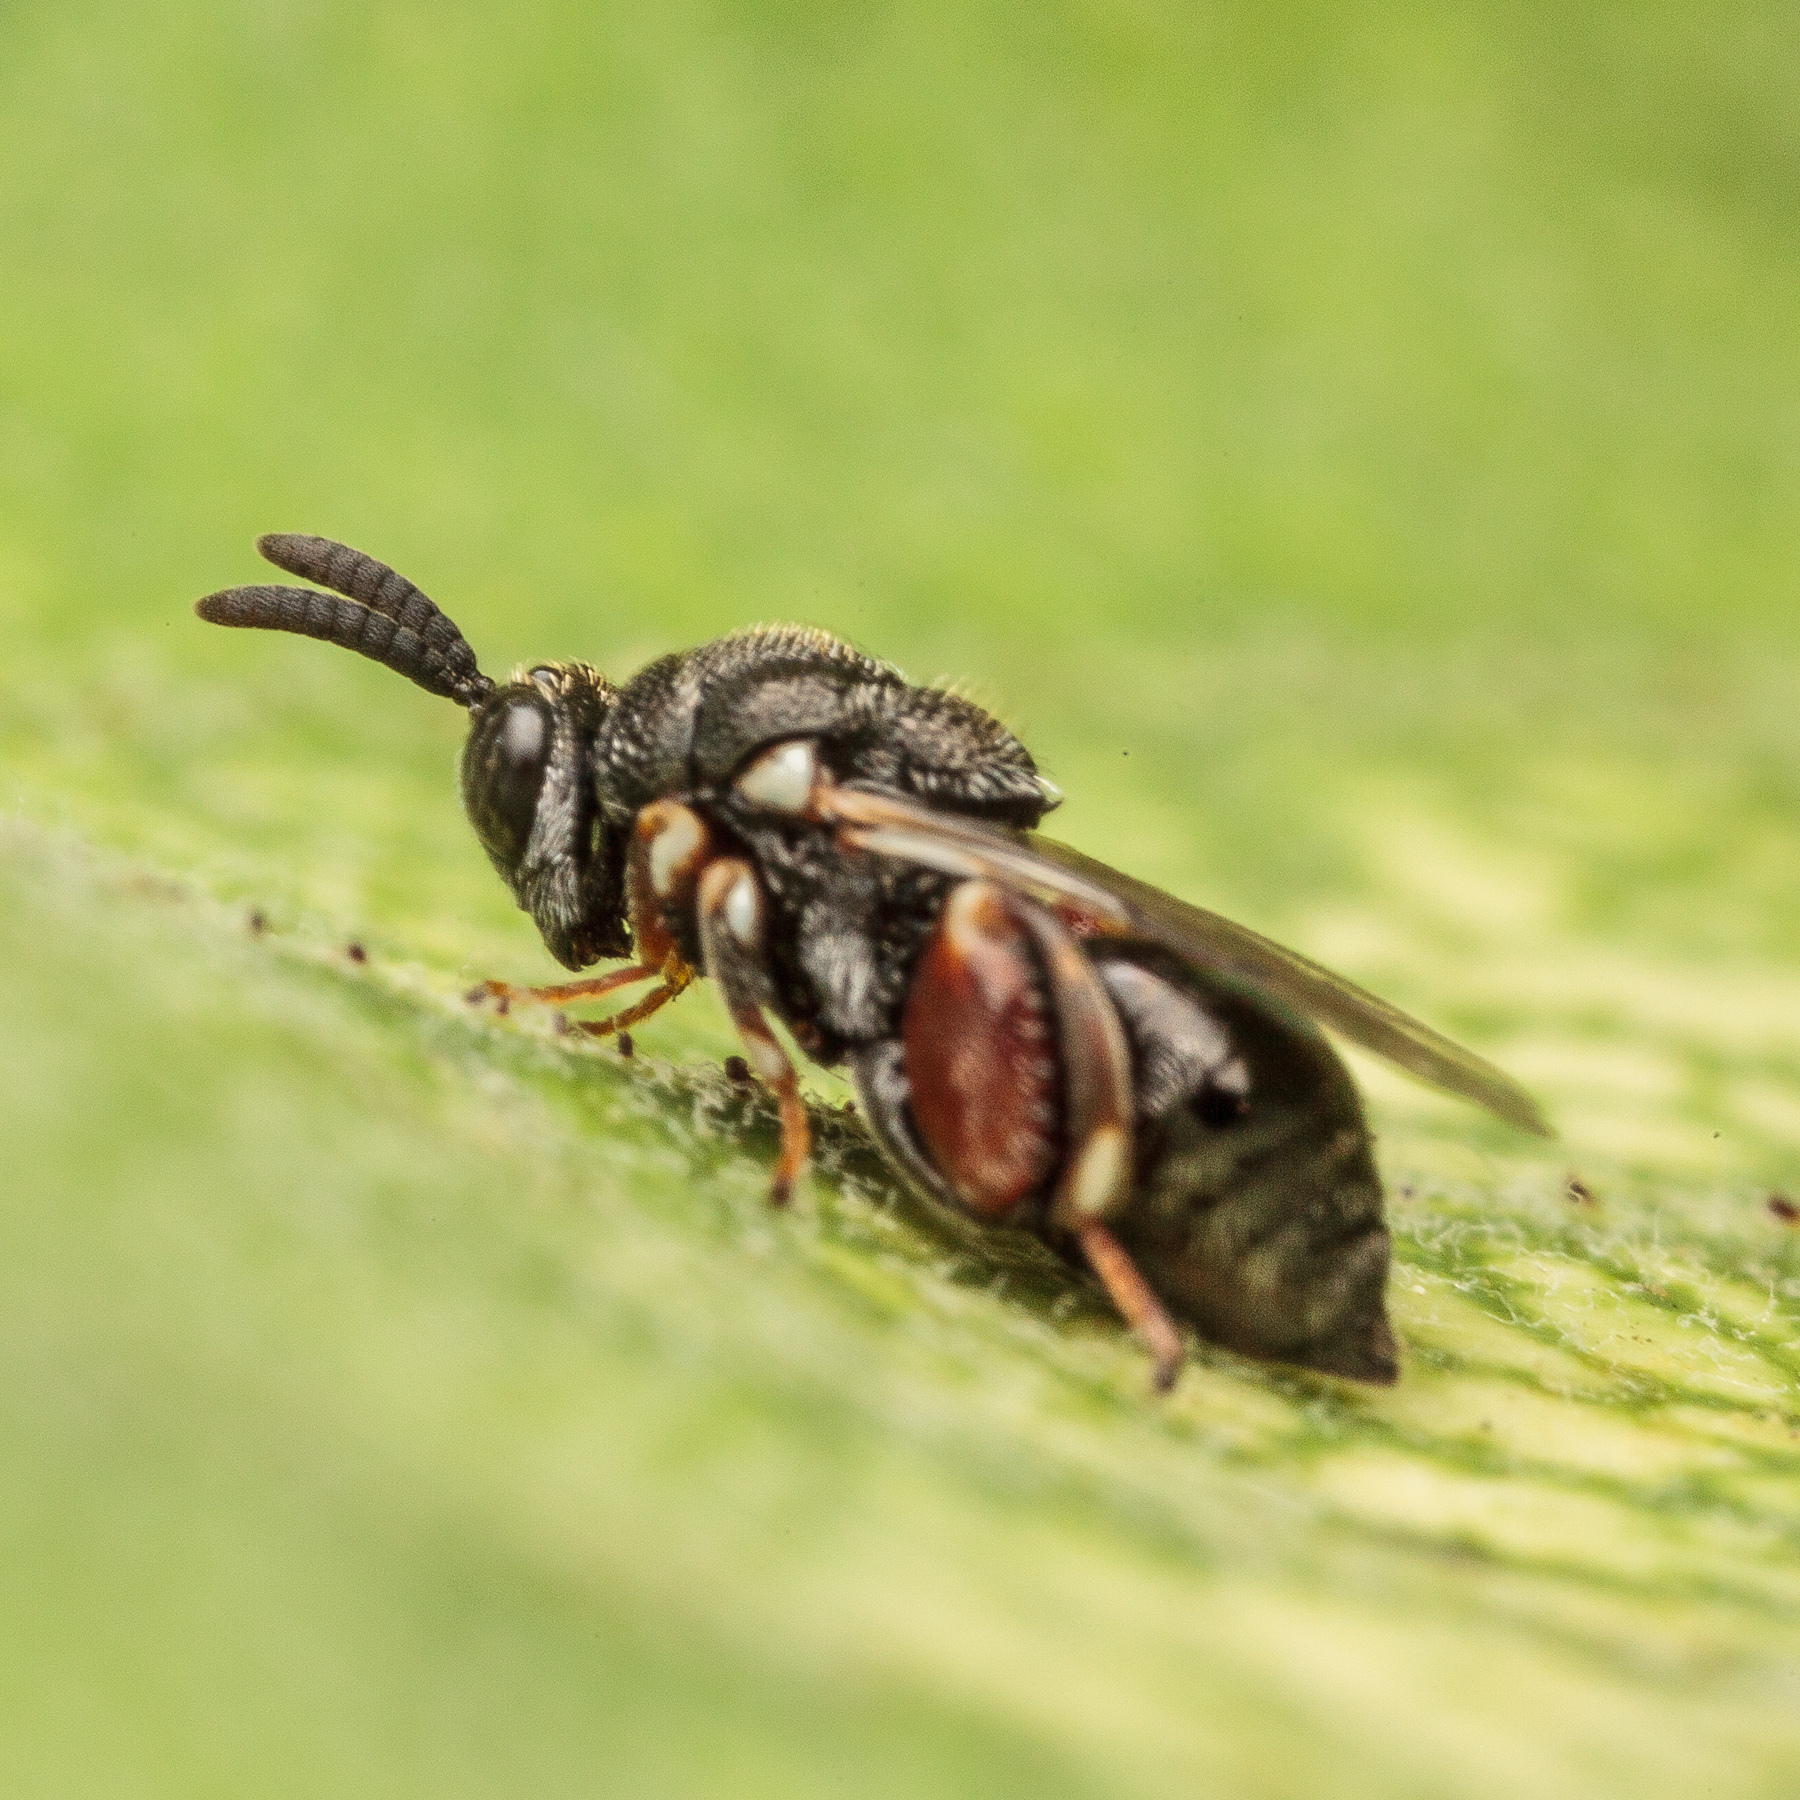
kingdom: Animalia
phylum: Arthropoda
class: Insecta
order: Hymenoptera
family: Chalcididae
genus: Brachymeria
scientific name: Brachymeria podagrica
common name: Chalcid wasp
